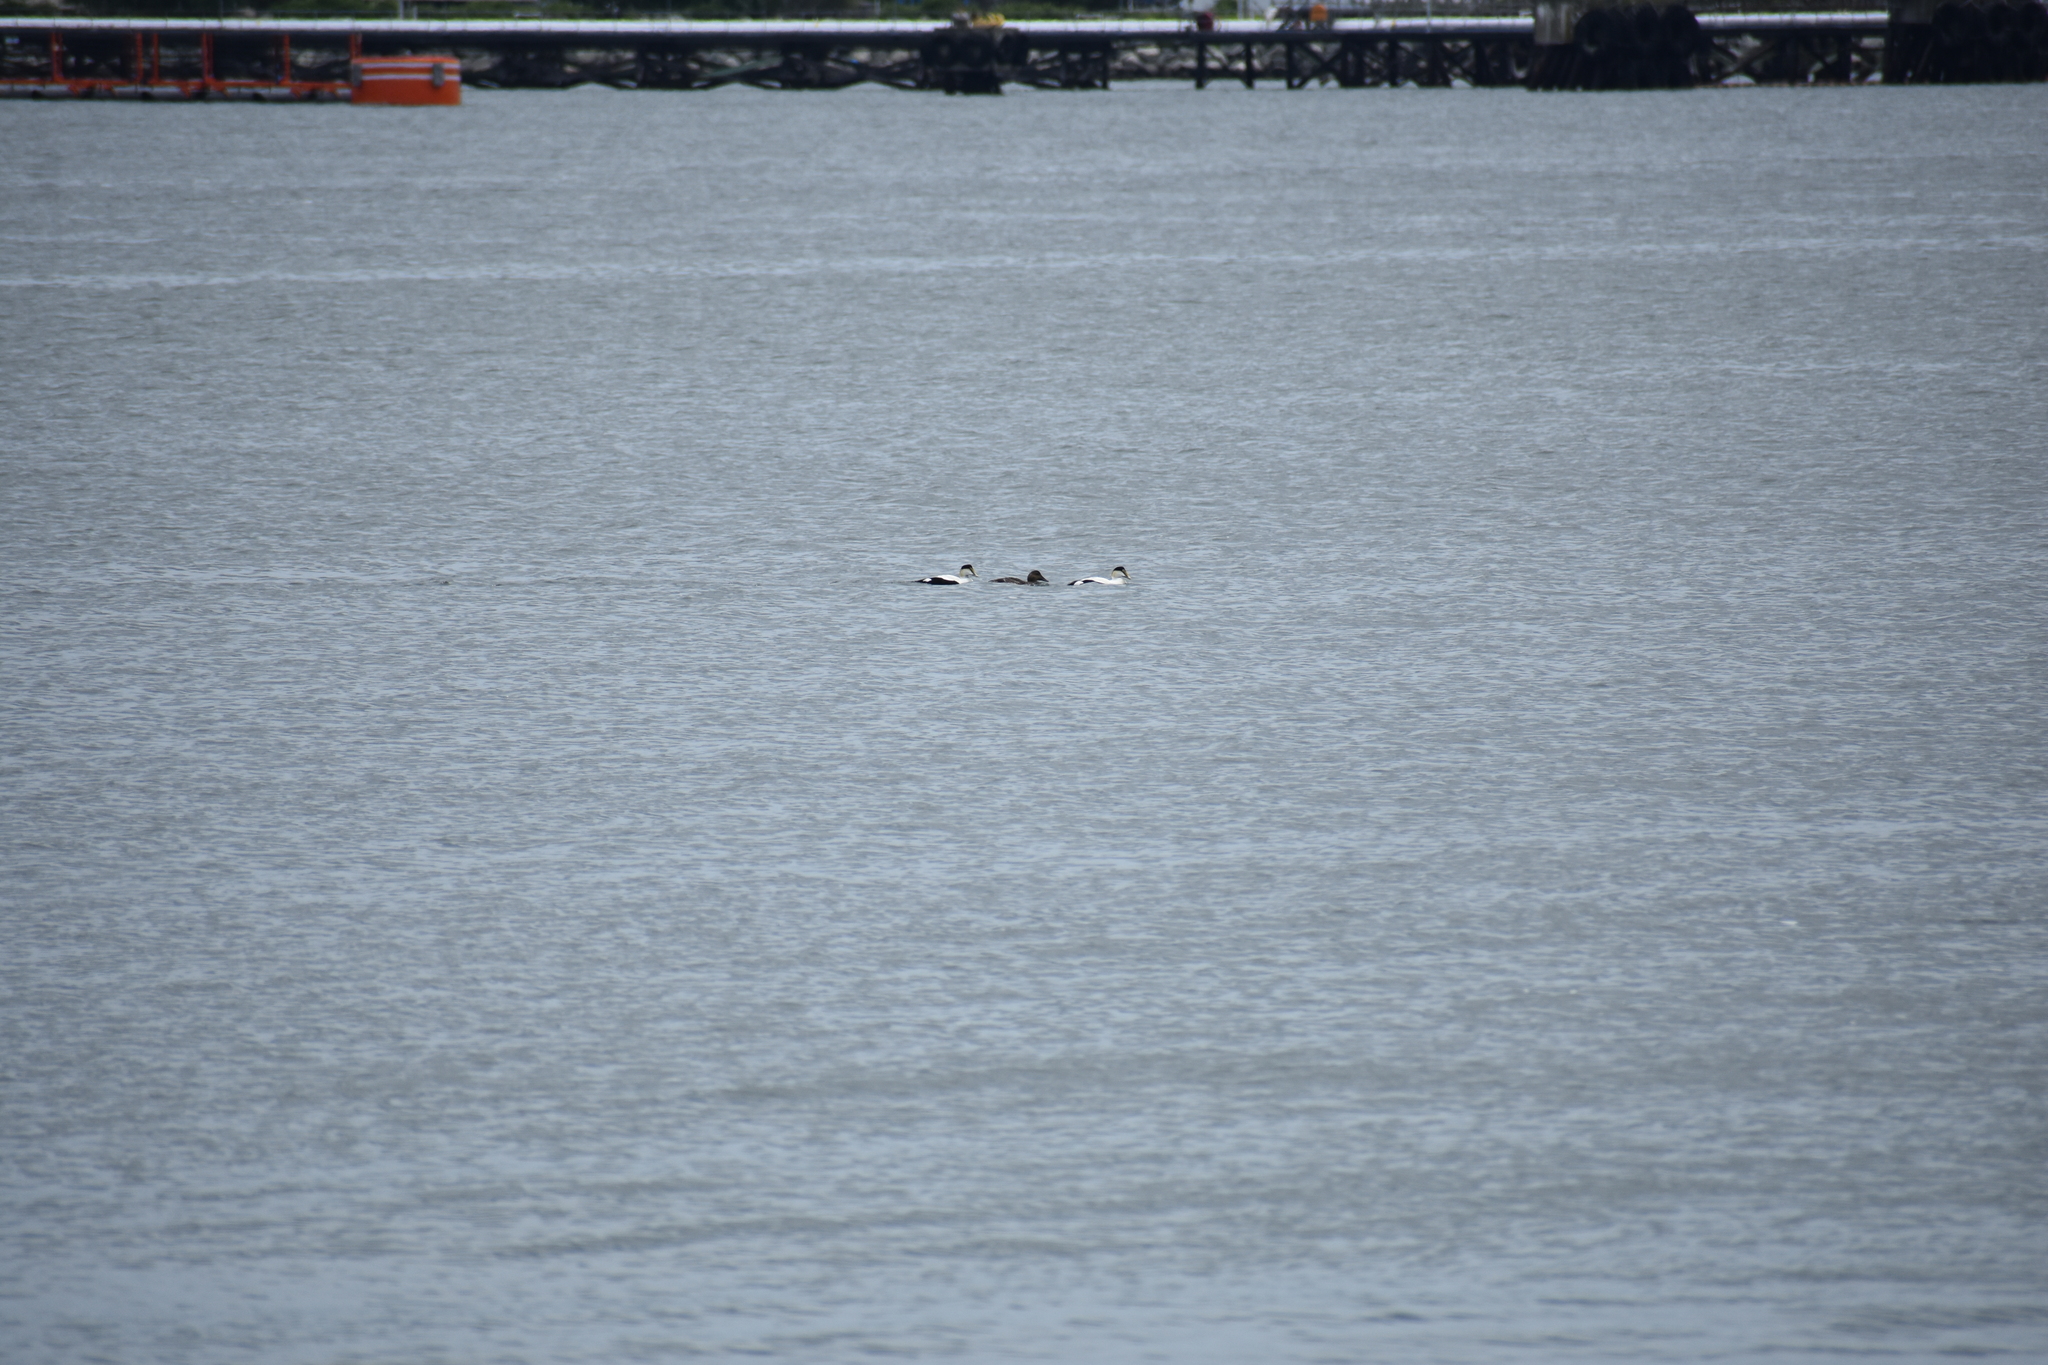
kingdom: Animalia
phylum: Chordata
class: Aves
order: Anseriformes
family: Anatidae
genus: Somateria
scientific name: Somateria mollissima
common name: Common eider
